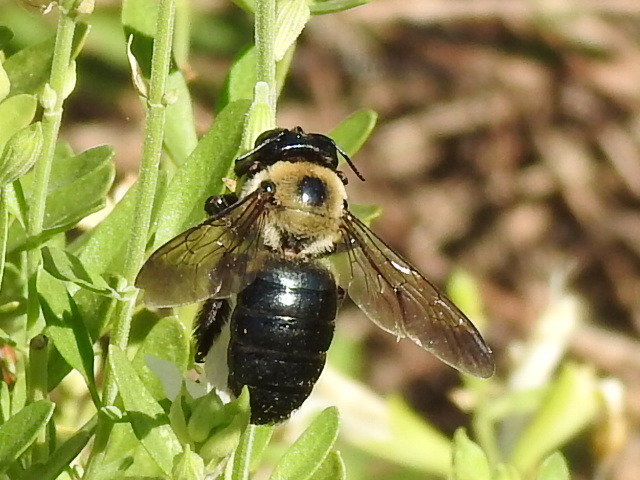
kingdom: Animalia
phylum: Arthropoda
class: Insecta
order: Hymenoptera
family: Apidae
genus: Xylocopa
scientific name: Xylocopa virginica
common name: Carpenter bee
